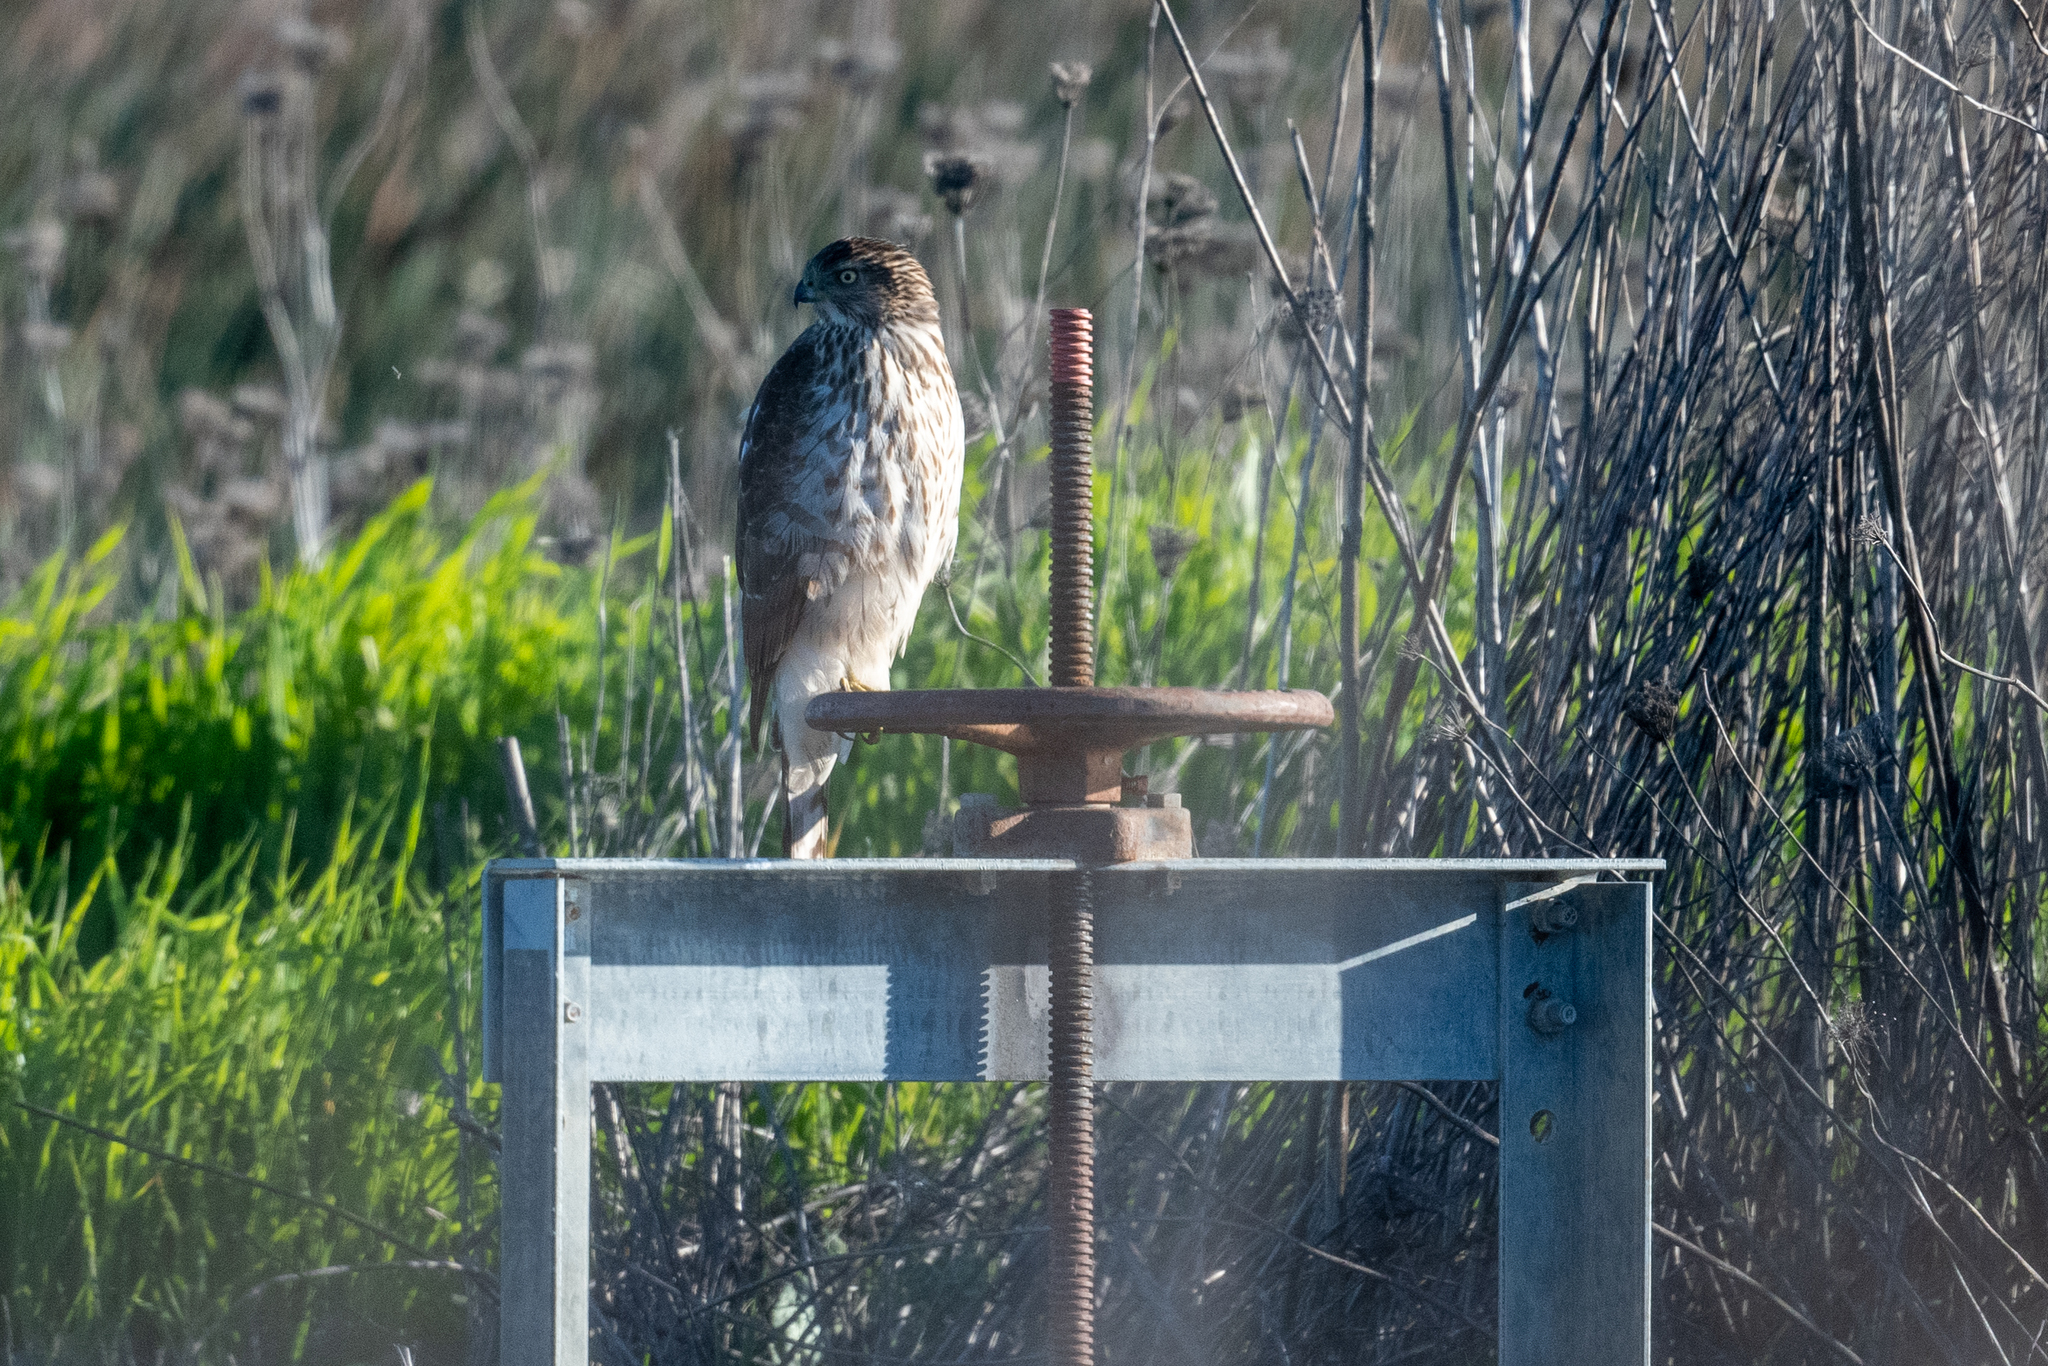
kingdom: Animalia
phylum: Chordata
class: Aves
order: Accipitriformes
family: Accipitridae
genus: Accipiter
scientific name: Accipiter cooperii
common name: Cooper's hawk
